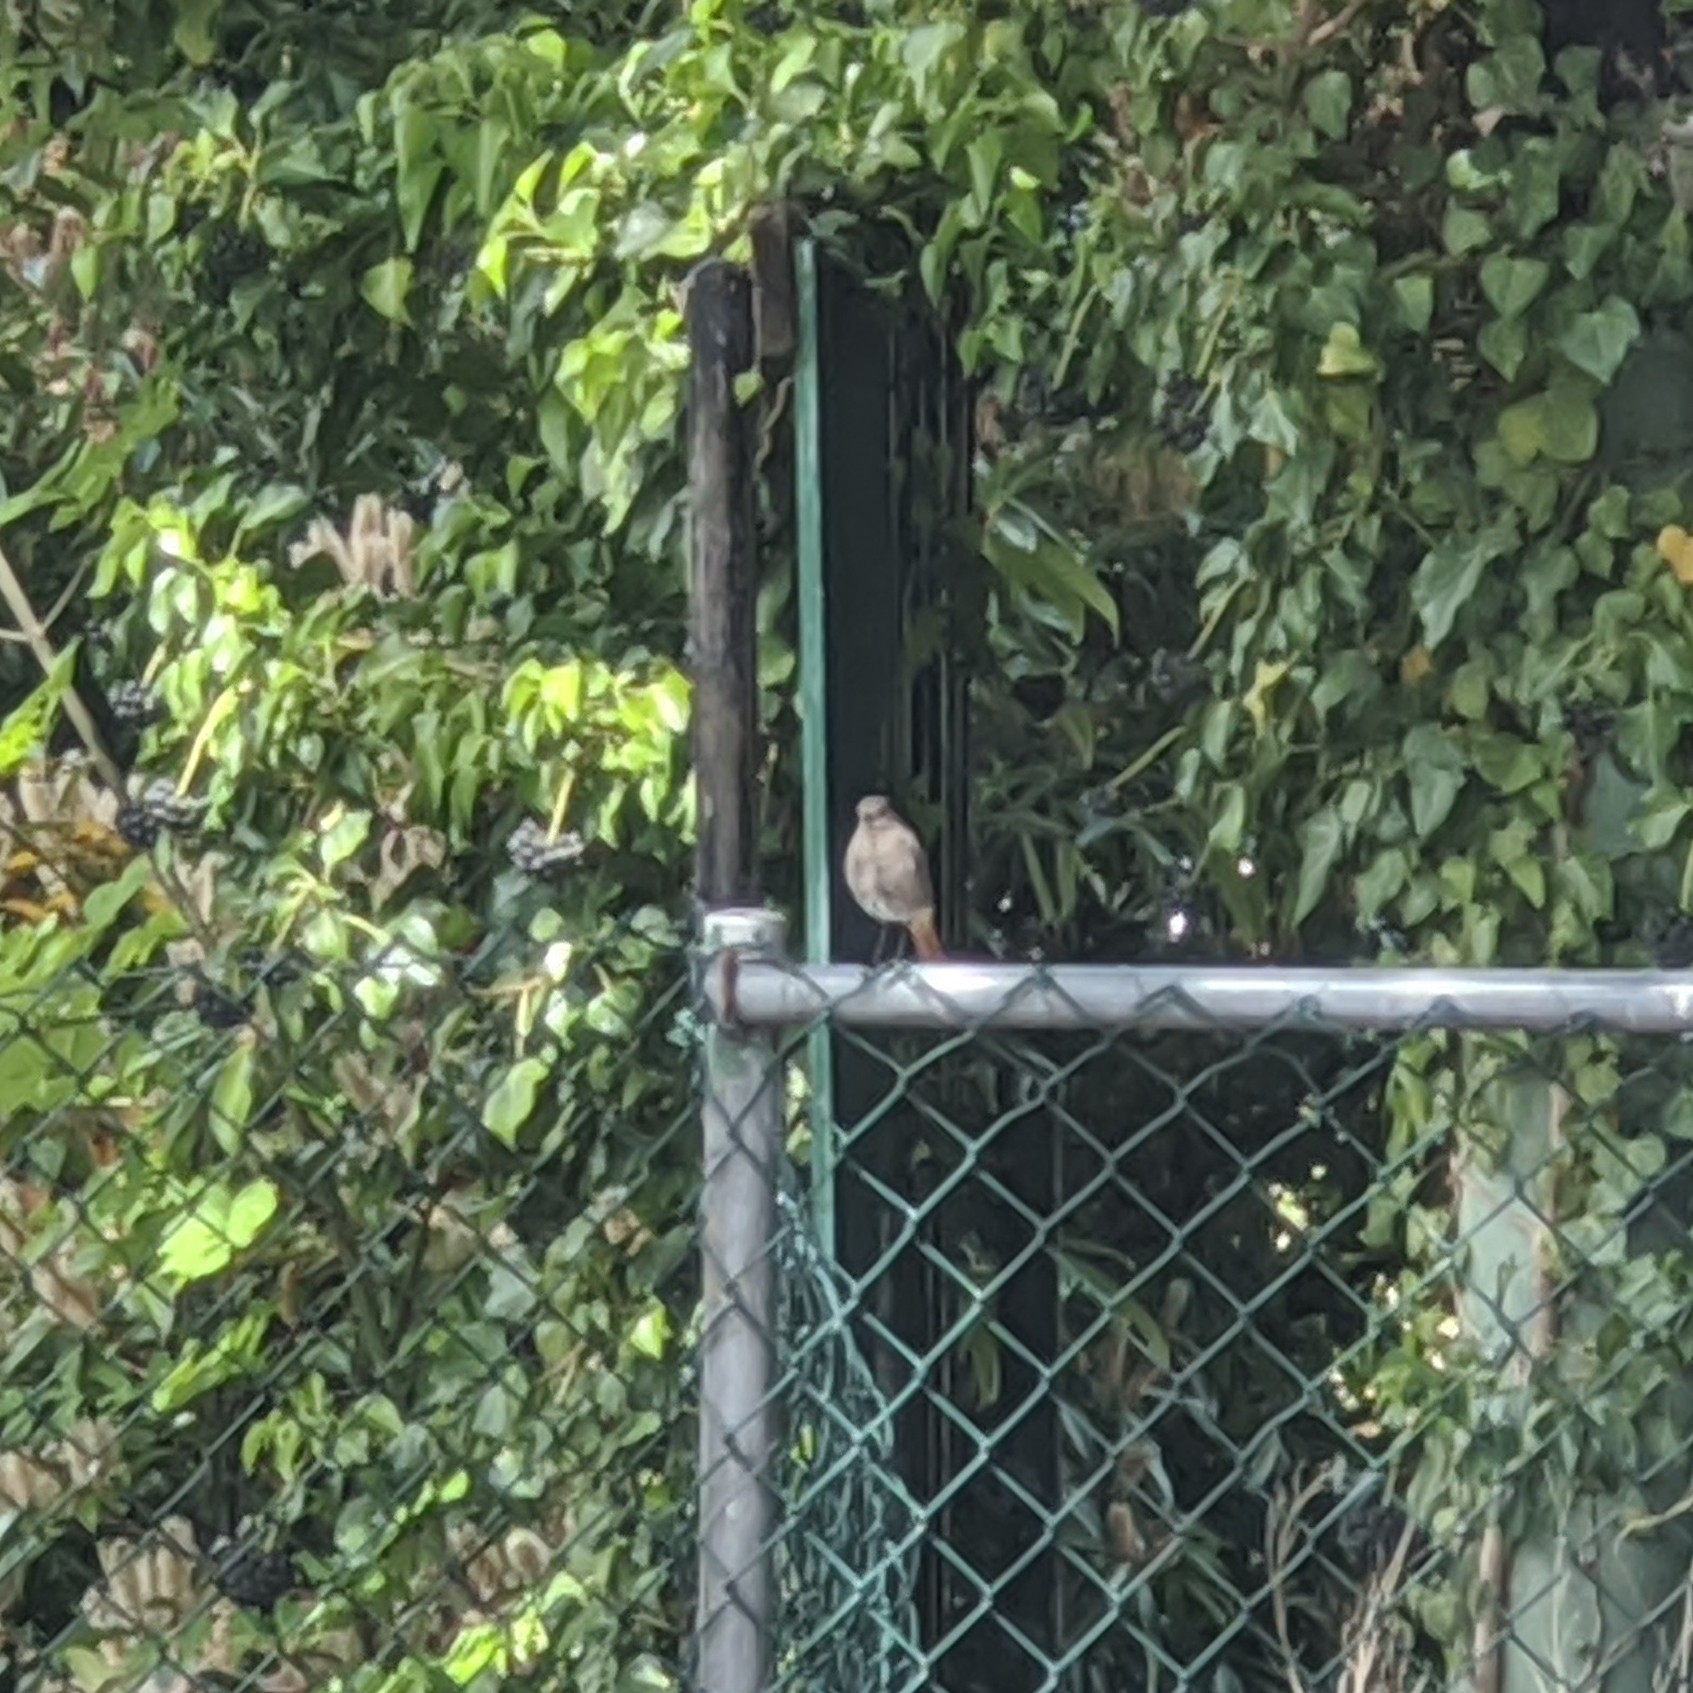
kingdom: Animalia
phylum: Chordata
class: Aves
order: Passeriformes
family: Muscicapidae
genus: Phoenicurus
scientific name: Phoenicurus ochruros
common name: Black redstart
